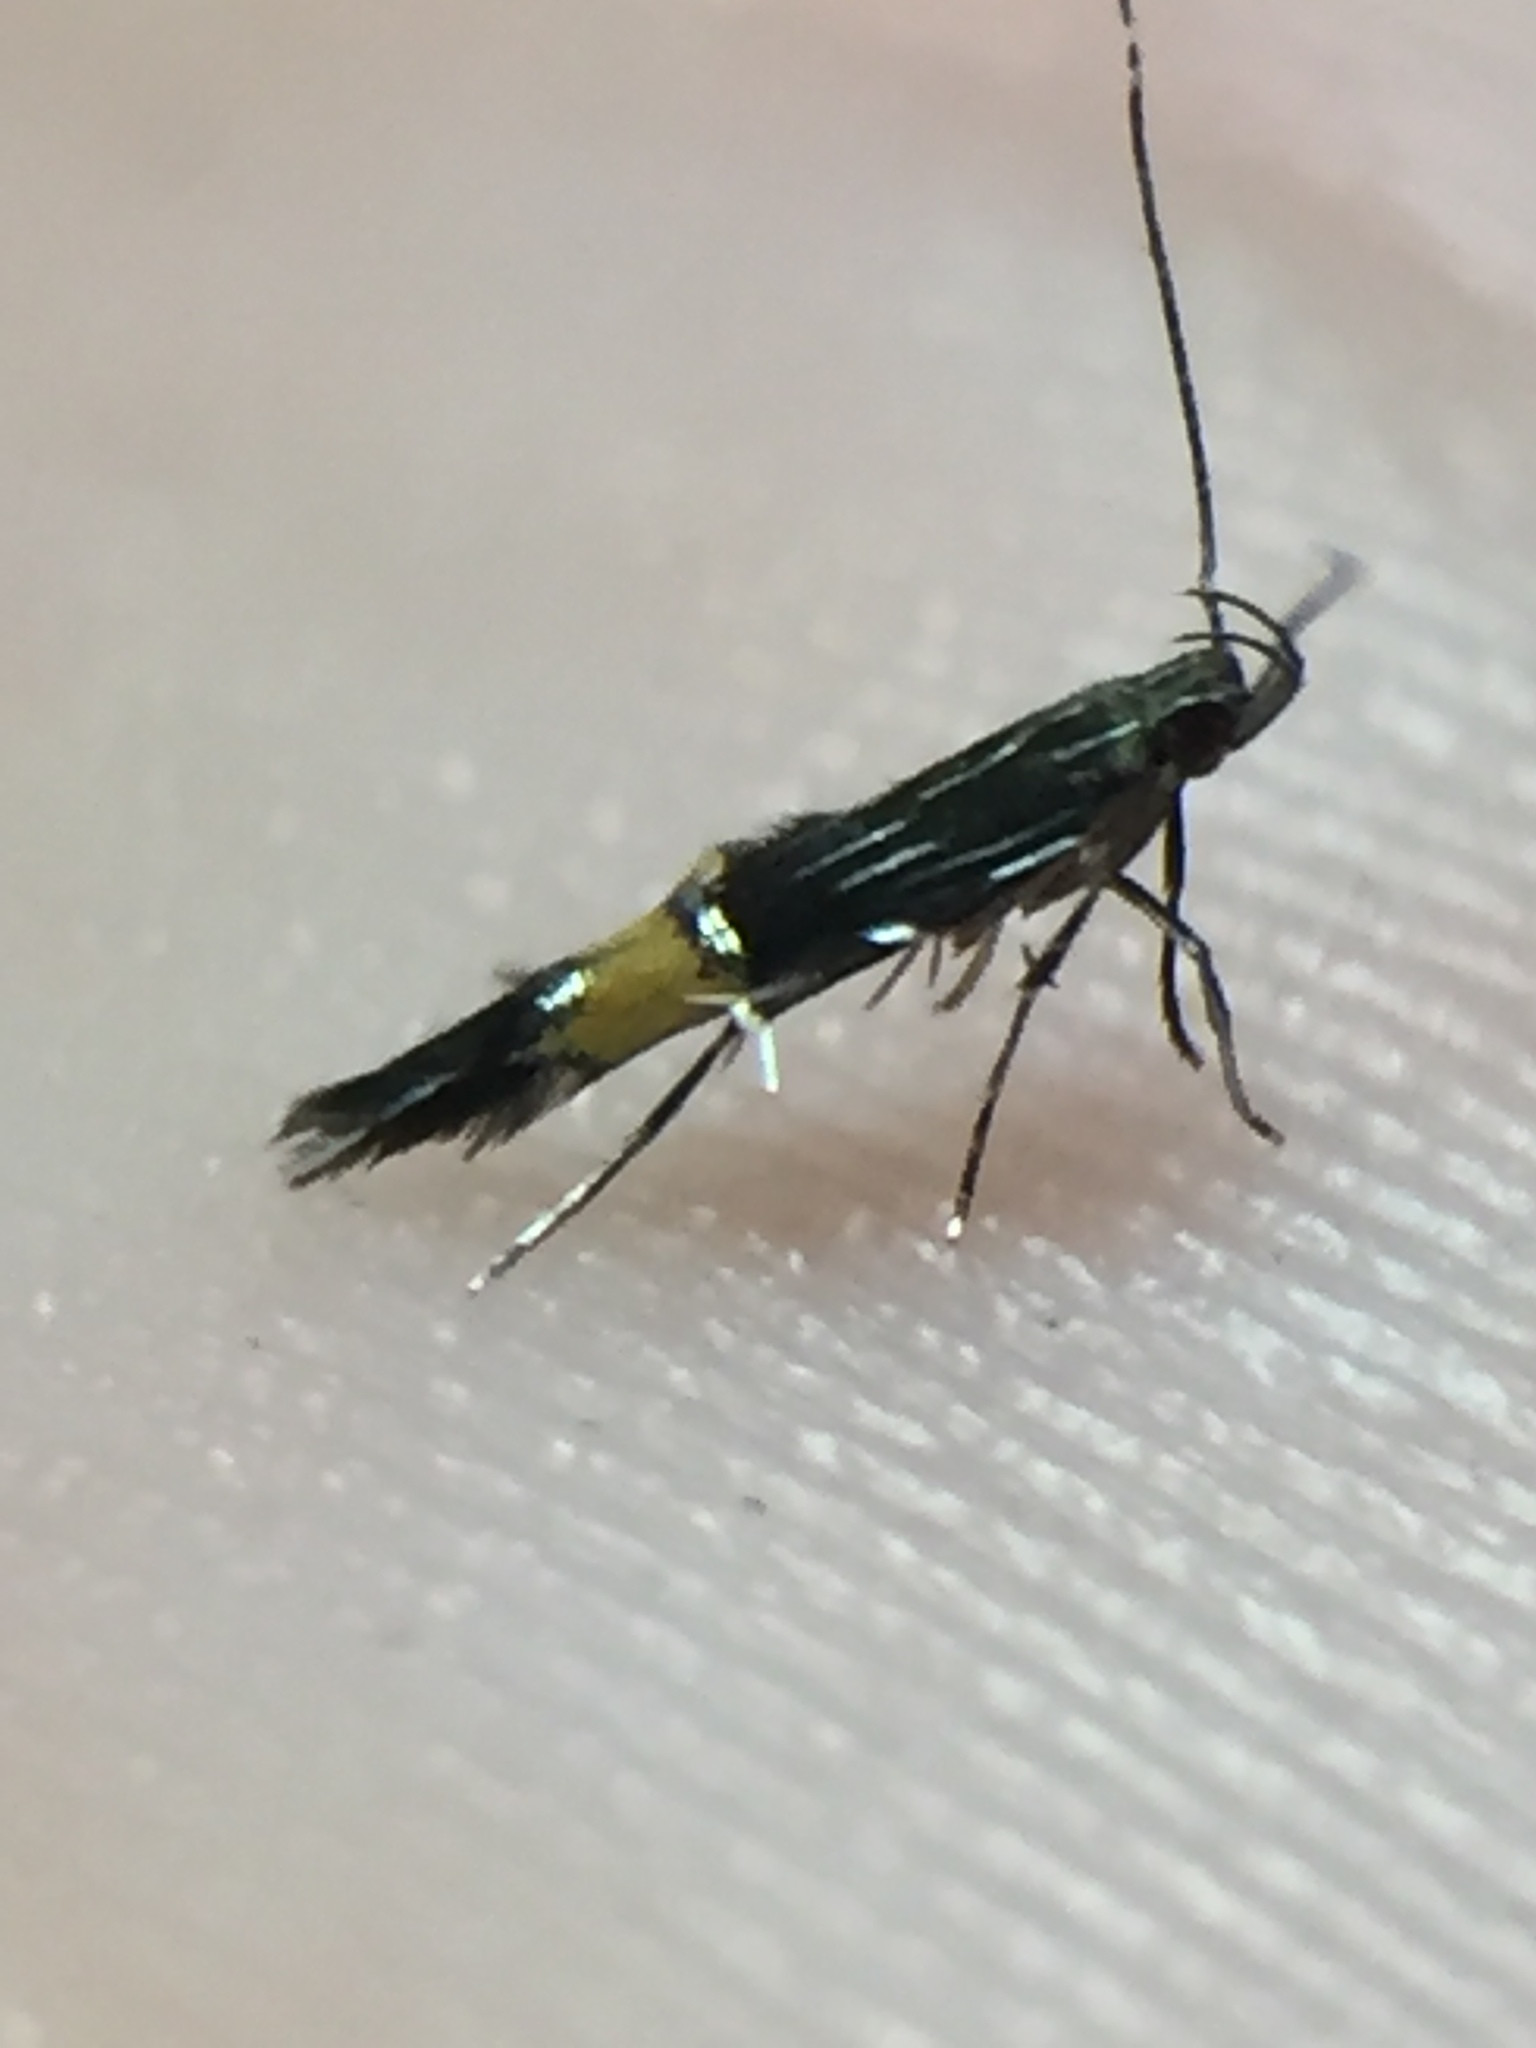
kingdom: Animalia
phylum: Arthropoda
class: Insecta
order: Lepidoptera
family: Cosmopterigidae
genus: Cosmopterix
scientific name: Cosmopterix attenuatella
